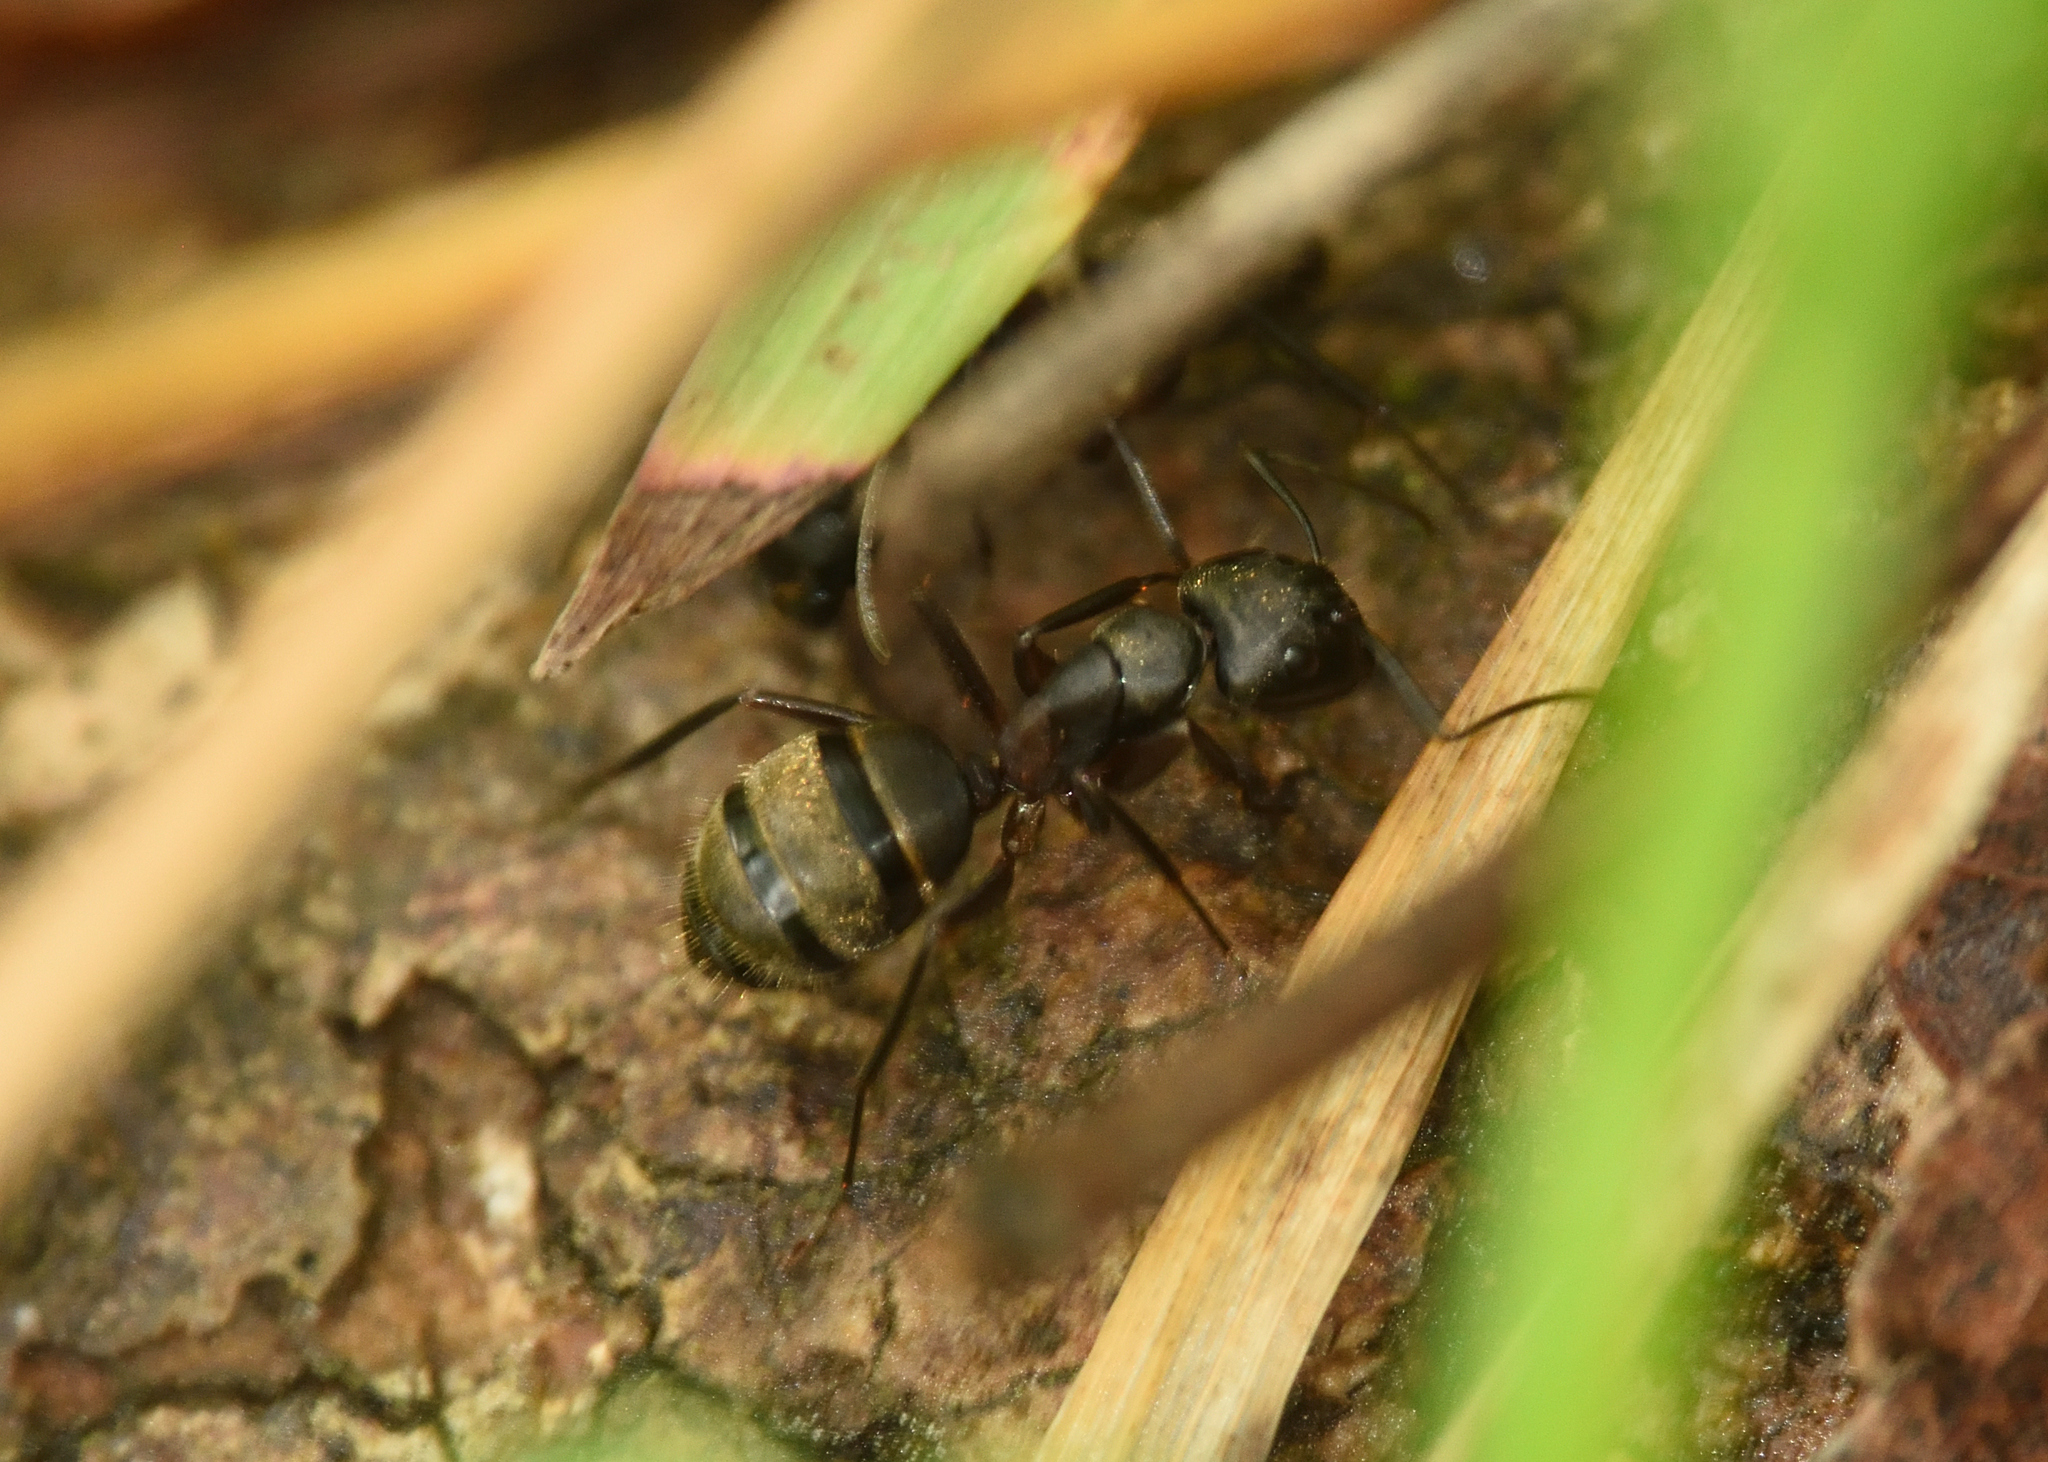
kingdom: Animalia
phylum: Arthropoda
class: Insecta
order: Hymenoptera
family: Formicidae
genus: Camponotus
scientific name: Camponotus chromaiodes
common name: Red carpenter ant
